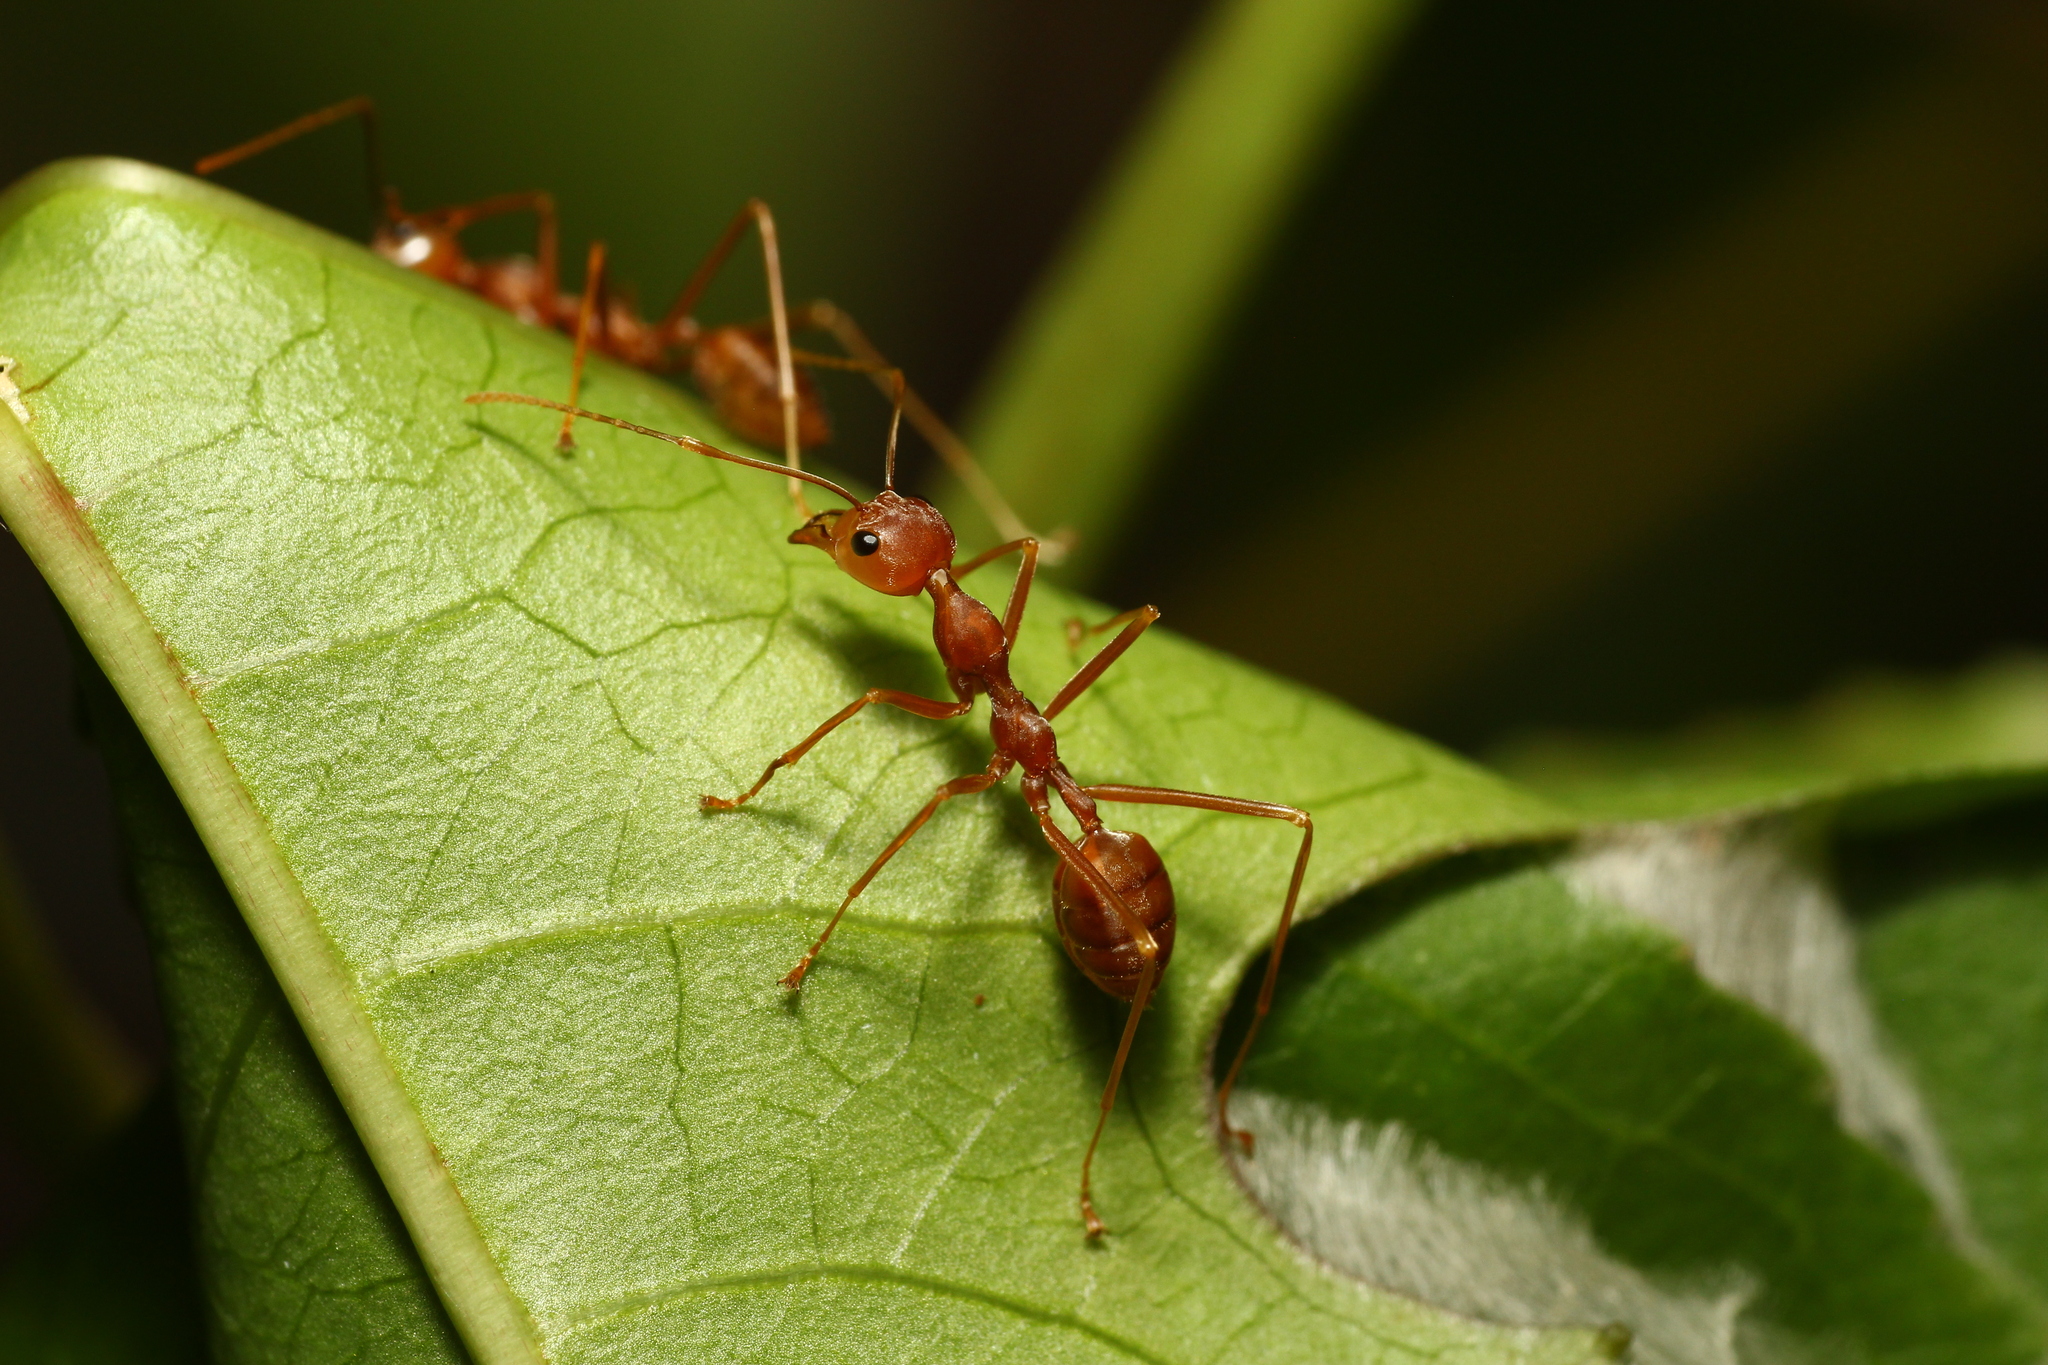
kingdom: Animalia
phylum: Arthropoda
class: Insecta
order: Hymenoptera
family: Formicidae
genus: Oecophylla
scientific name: Oecophylla smaragdina
